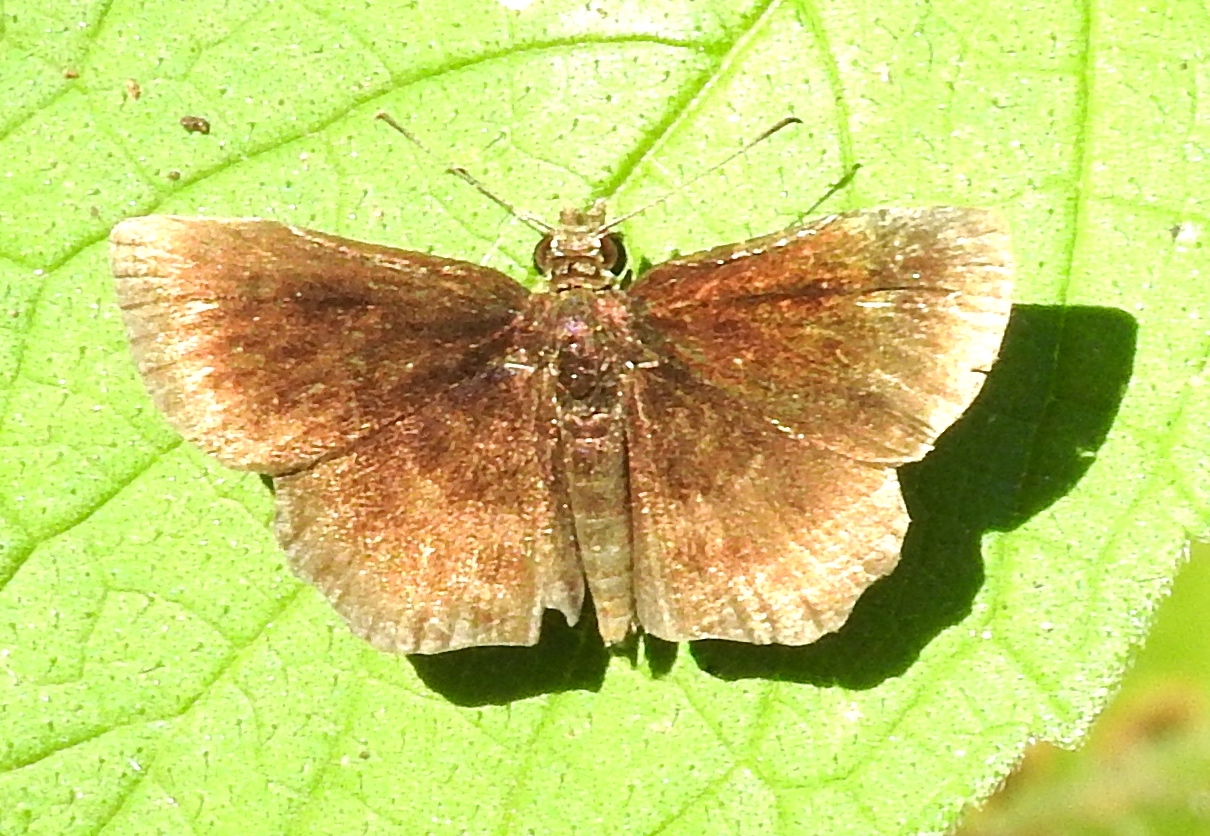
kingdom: Animalia
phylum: Arthropoda
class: Insecta
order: Lepidoptera
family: Hesperiidae
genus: Zopyrion
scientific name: Zopyrion sandace
